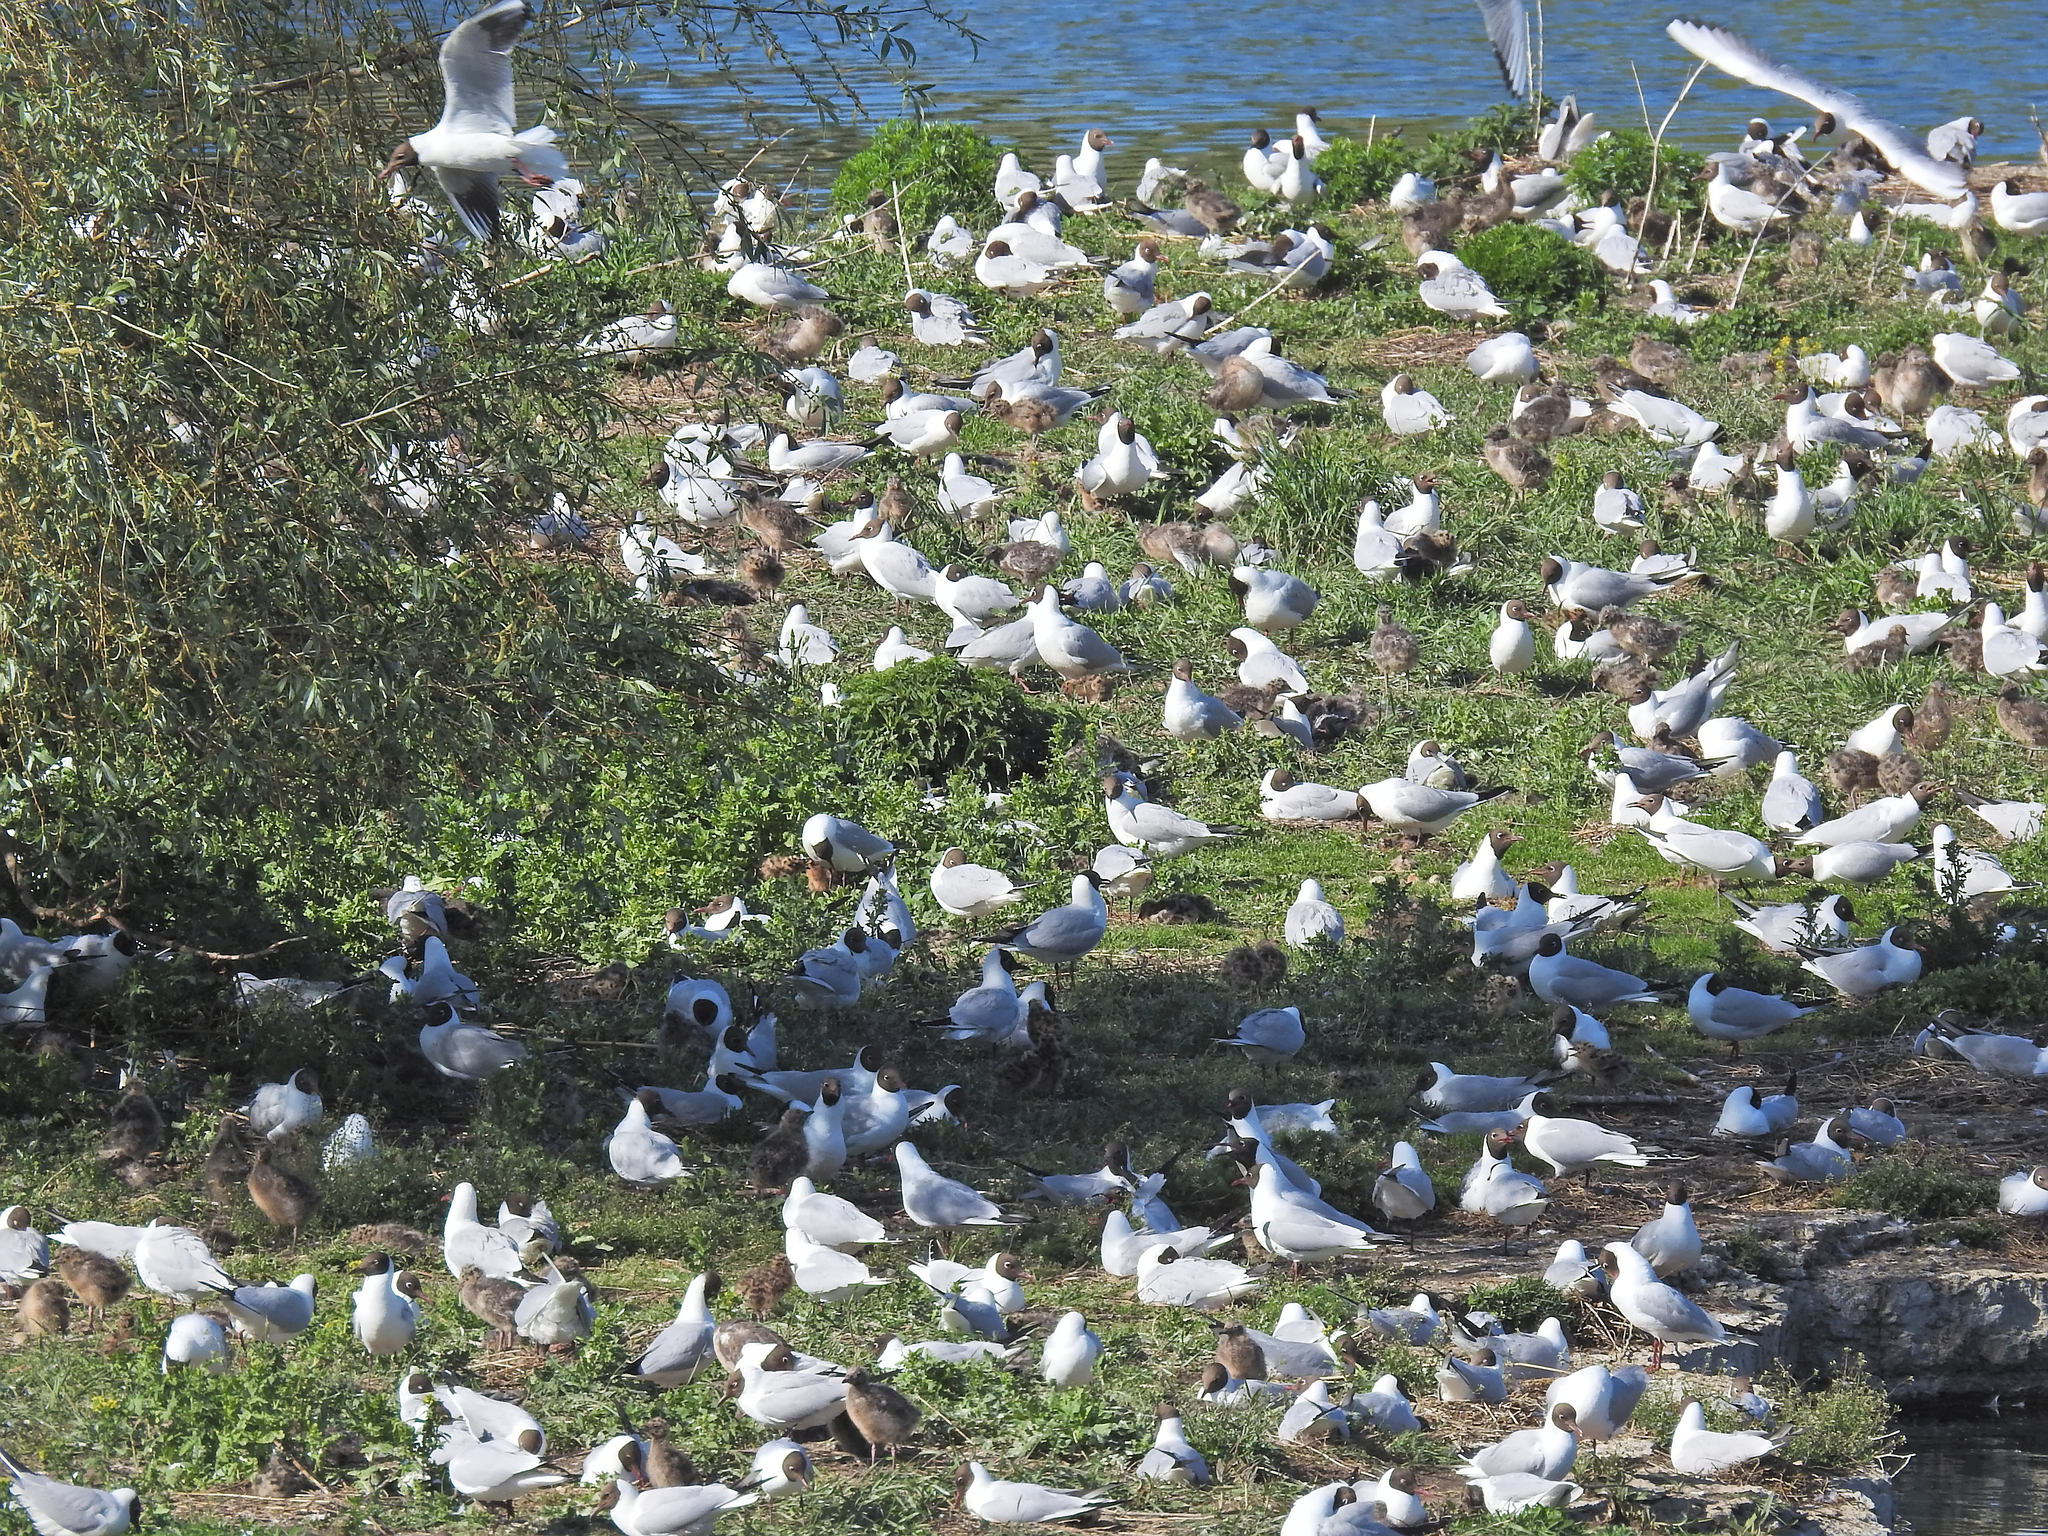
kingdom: Animalia
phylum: Chordata
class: Aves
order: Charadriiformes
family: Laridae
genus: Chroicocephalus
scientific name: Chroicocephalus ridibundus
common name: Black-headed gull
